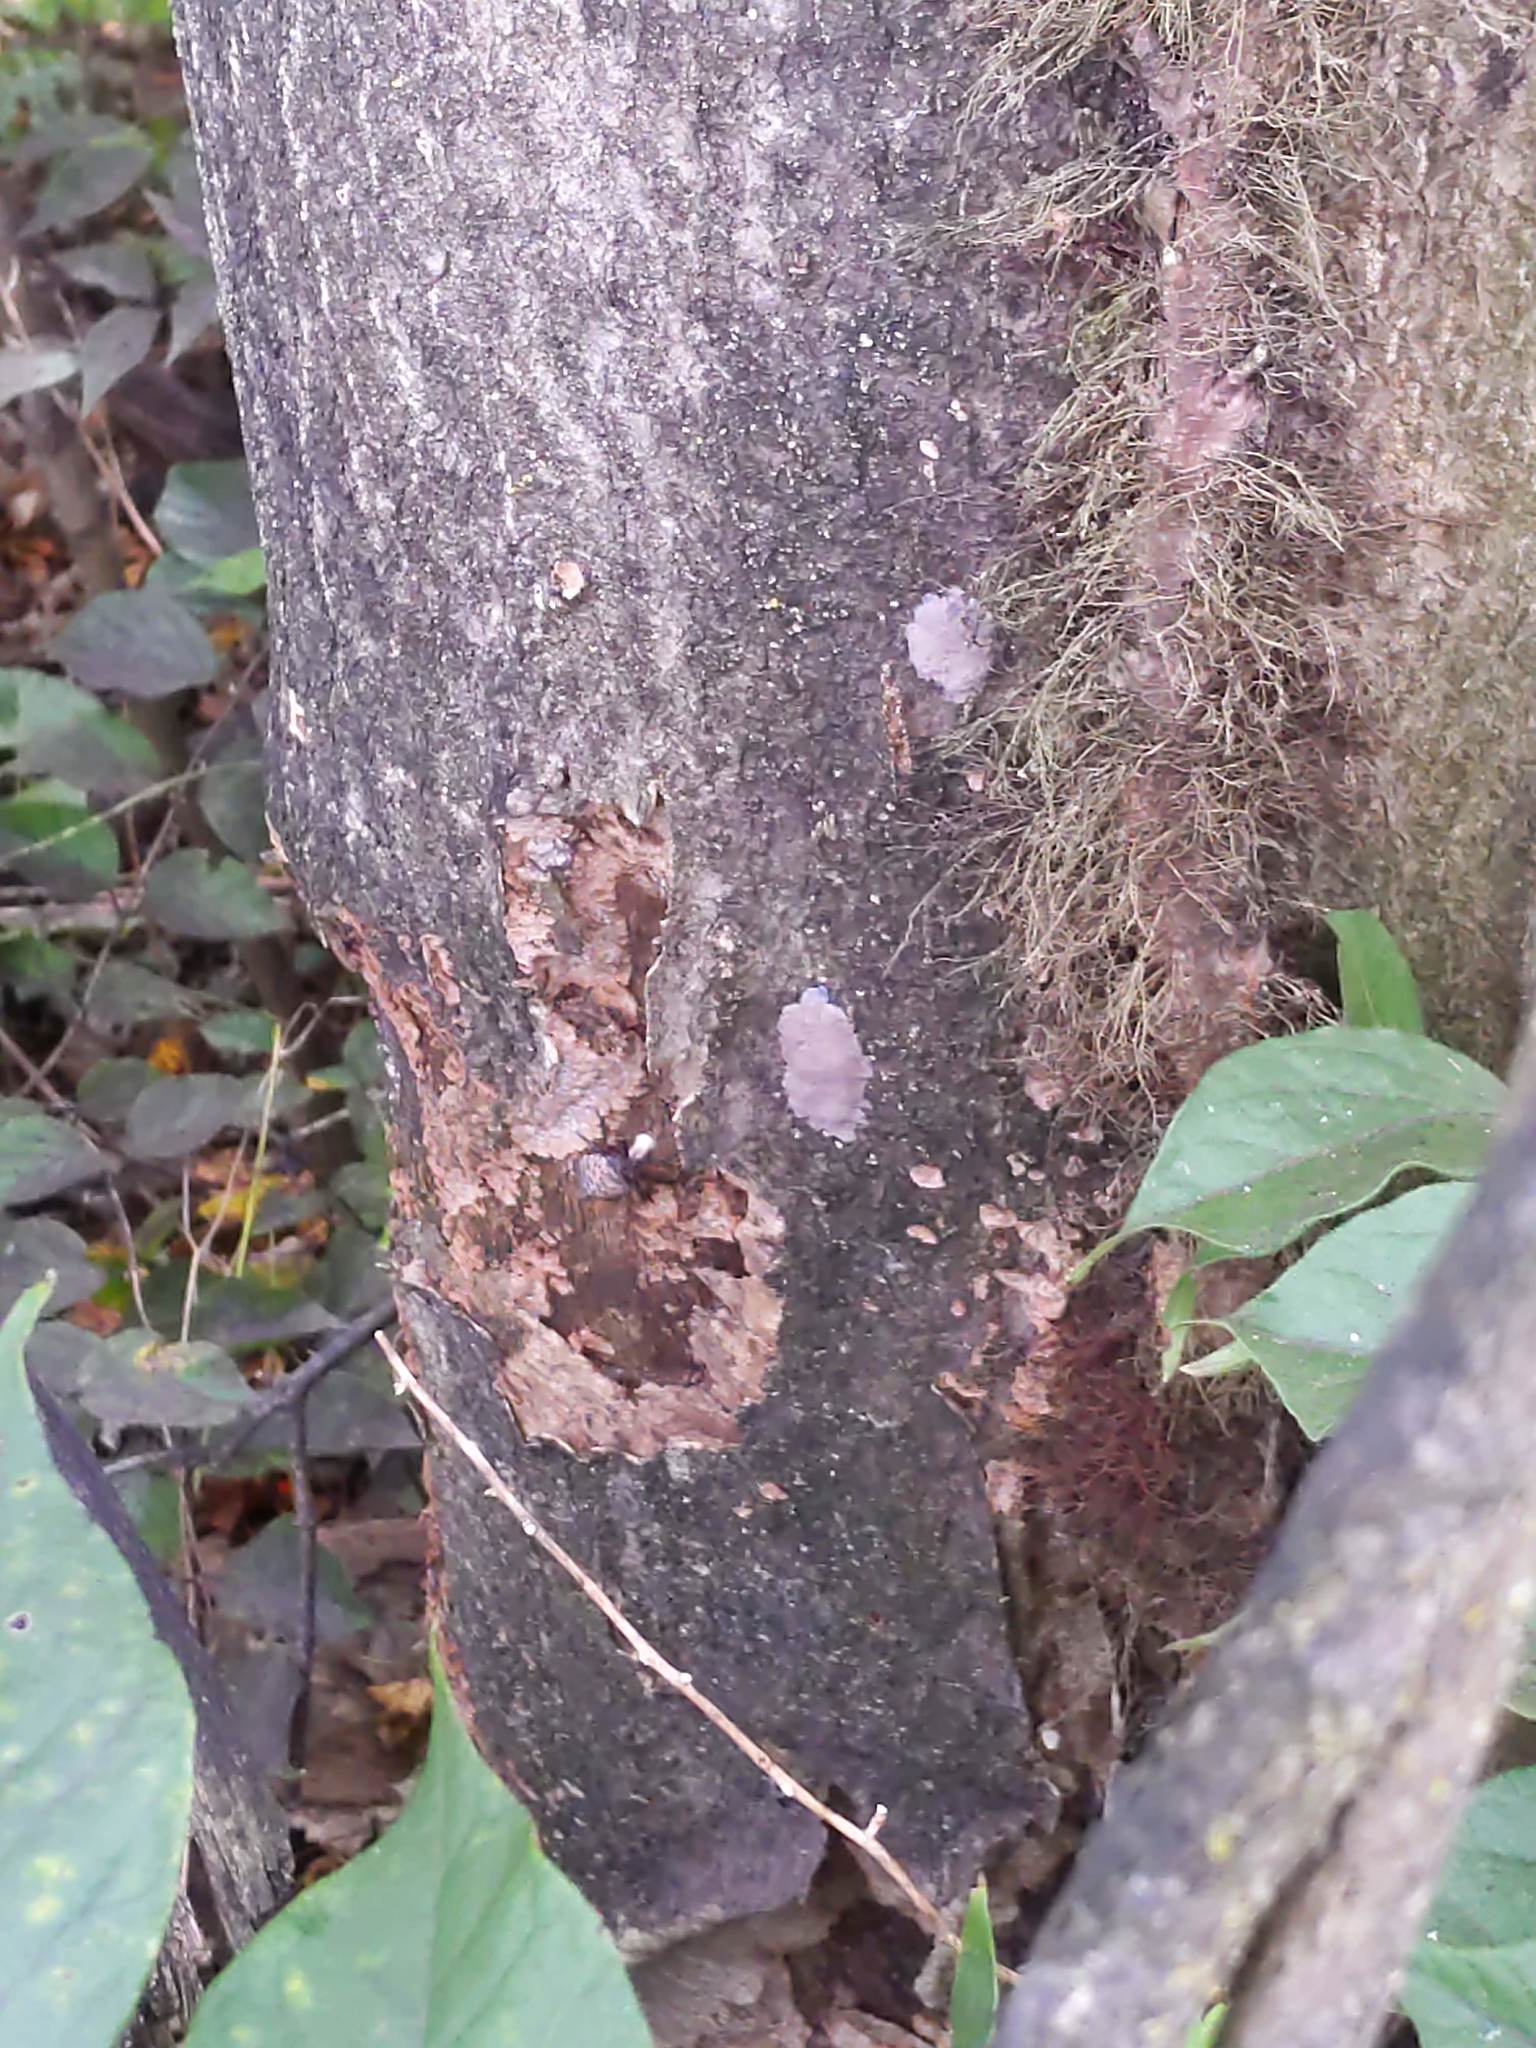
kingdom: Animalia
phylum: Arthropoda
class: Insecta
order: Hemiptera
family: Fulgoridae
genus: Lycorma
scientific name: Lycorma delicatula
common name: Spotted lanternfly
